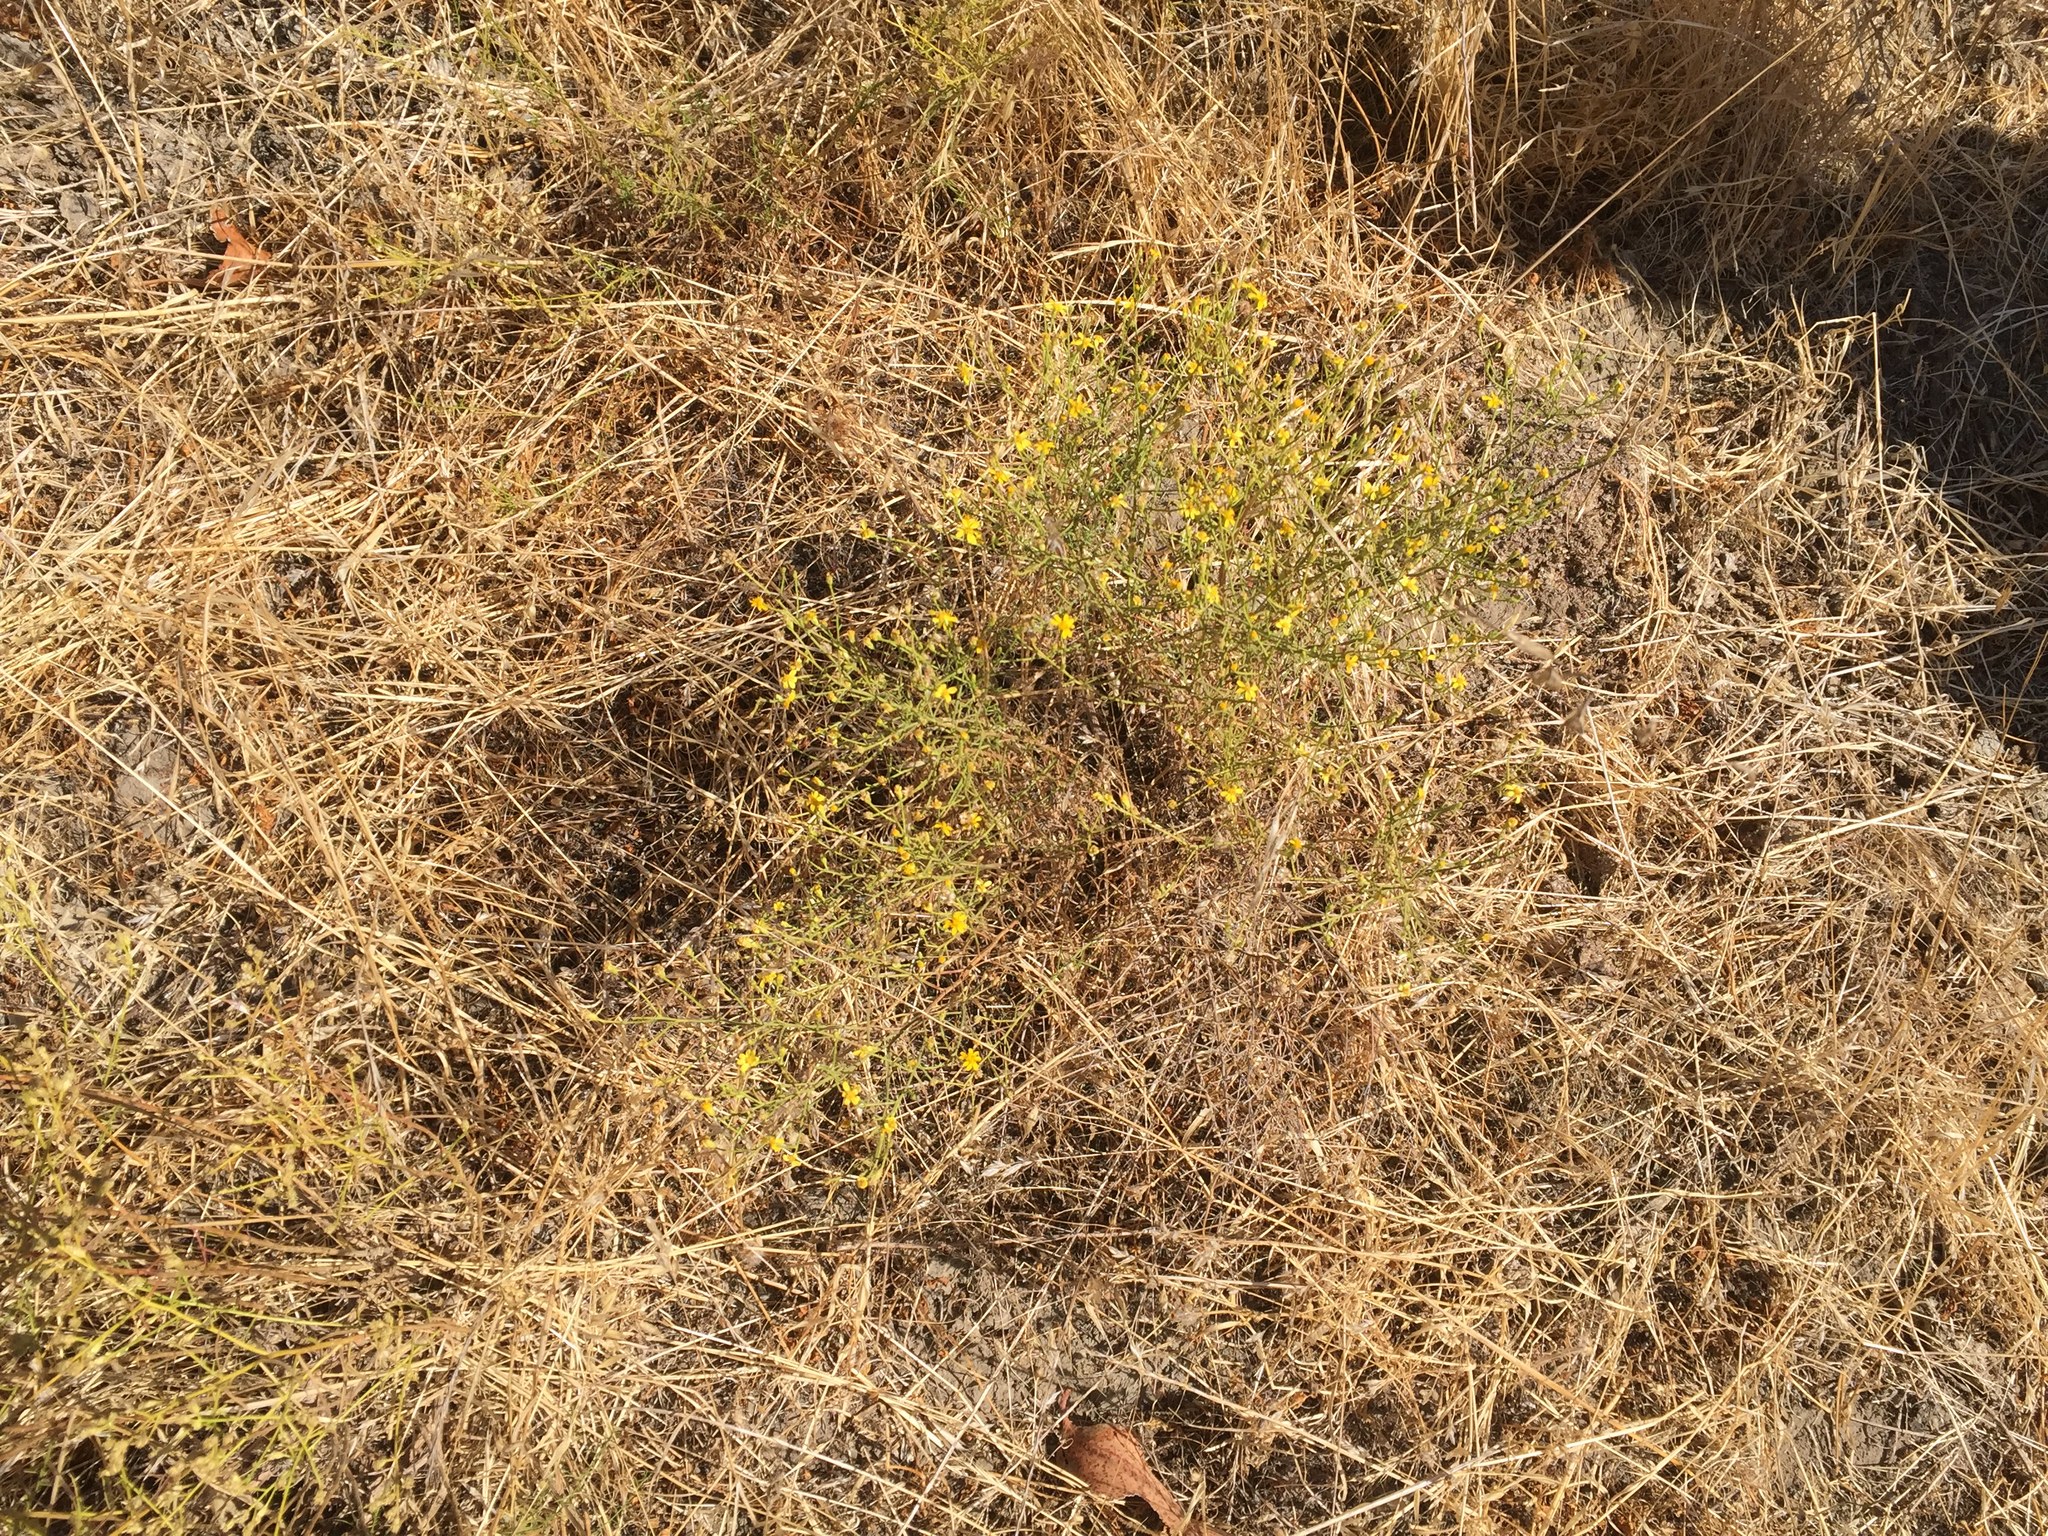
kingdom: Plantae
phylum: Tracheophyta
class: Magnoliopsida
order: Asterales
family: Asteraceae
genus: Gutierrezia
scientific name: Gutierrezia californica
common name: California matchweed
